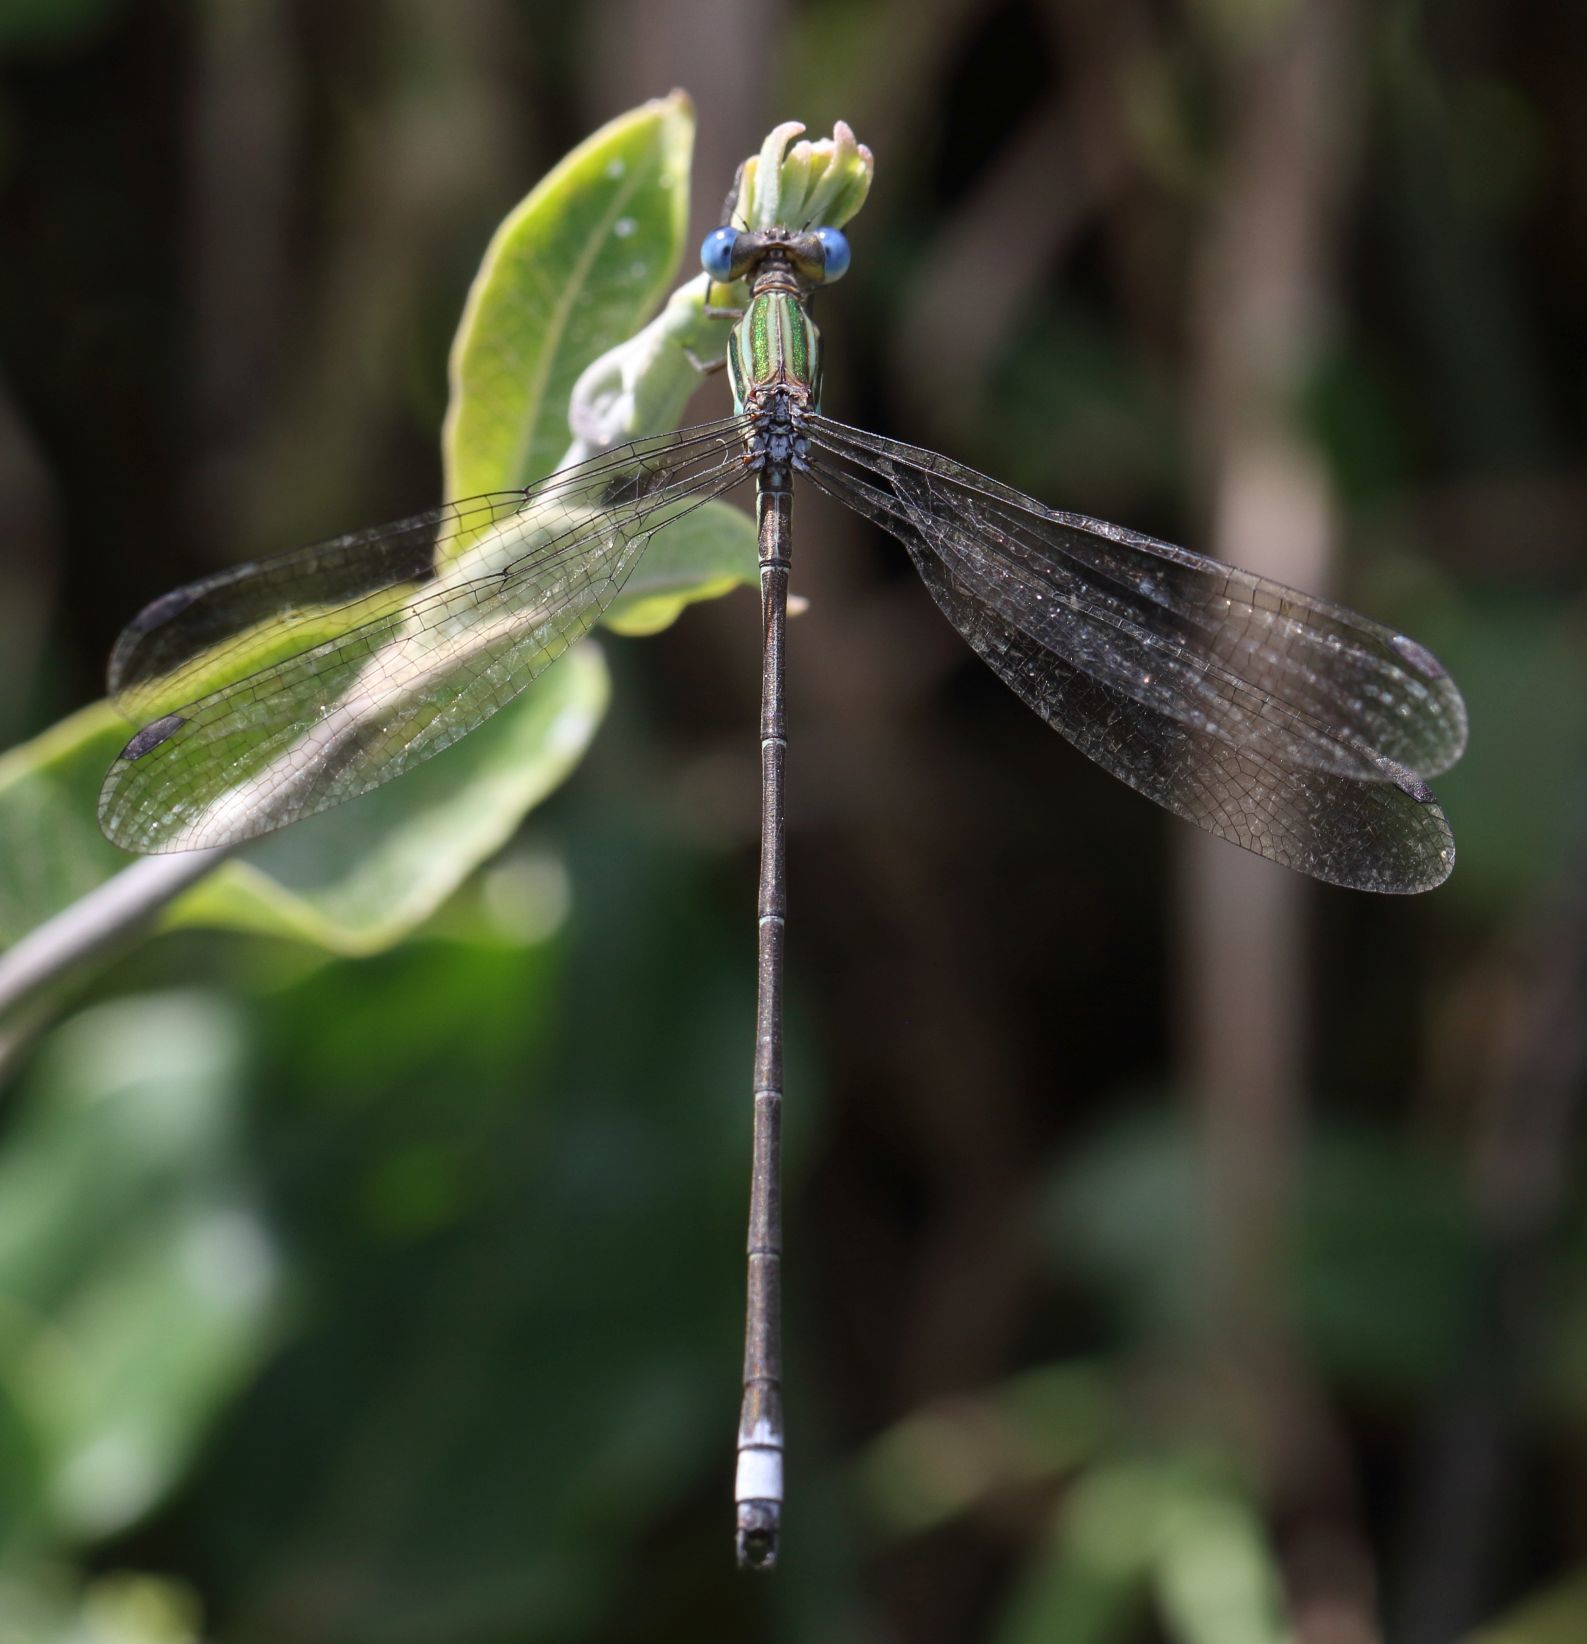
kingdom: Animalia
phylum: Arthropoda
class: Insecta
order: Odonata
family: Lestidae
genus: Lestes
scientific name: Lestes virgatus
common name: Smoky spreadwing
